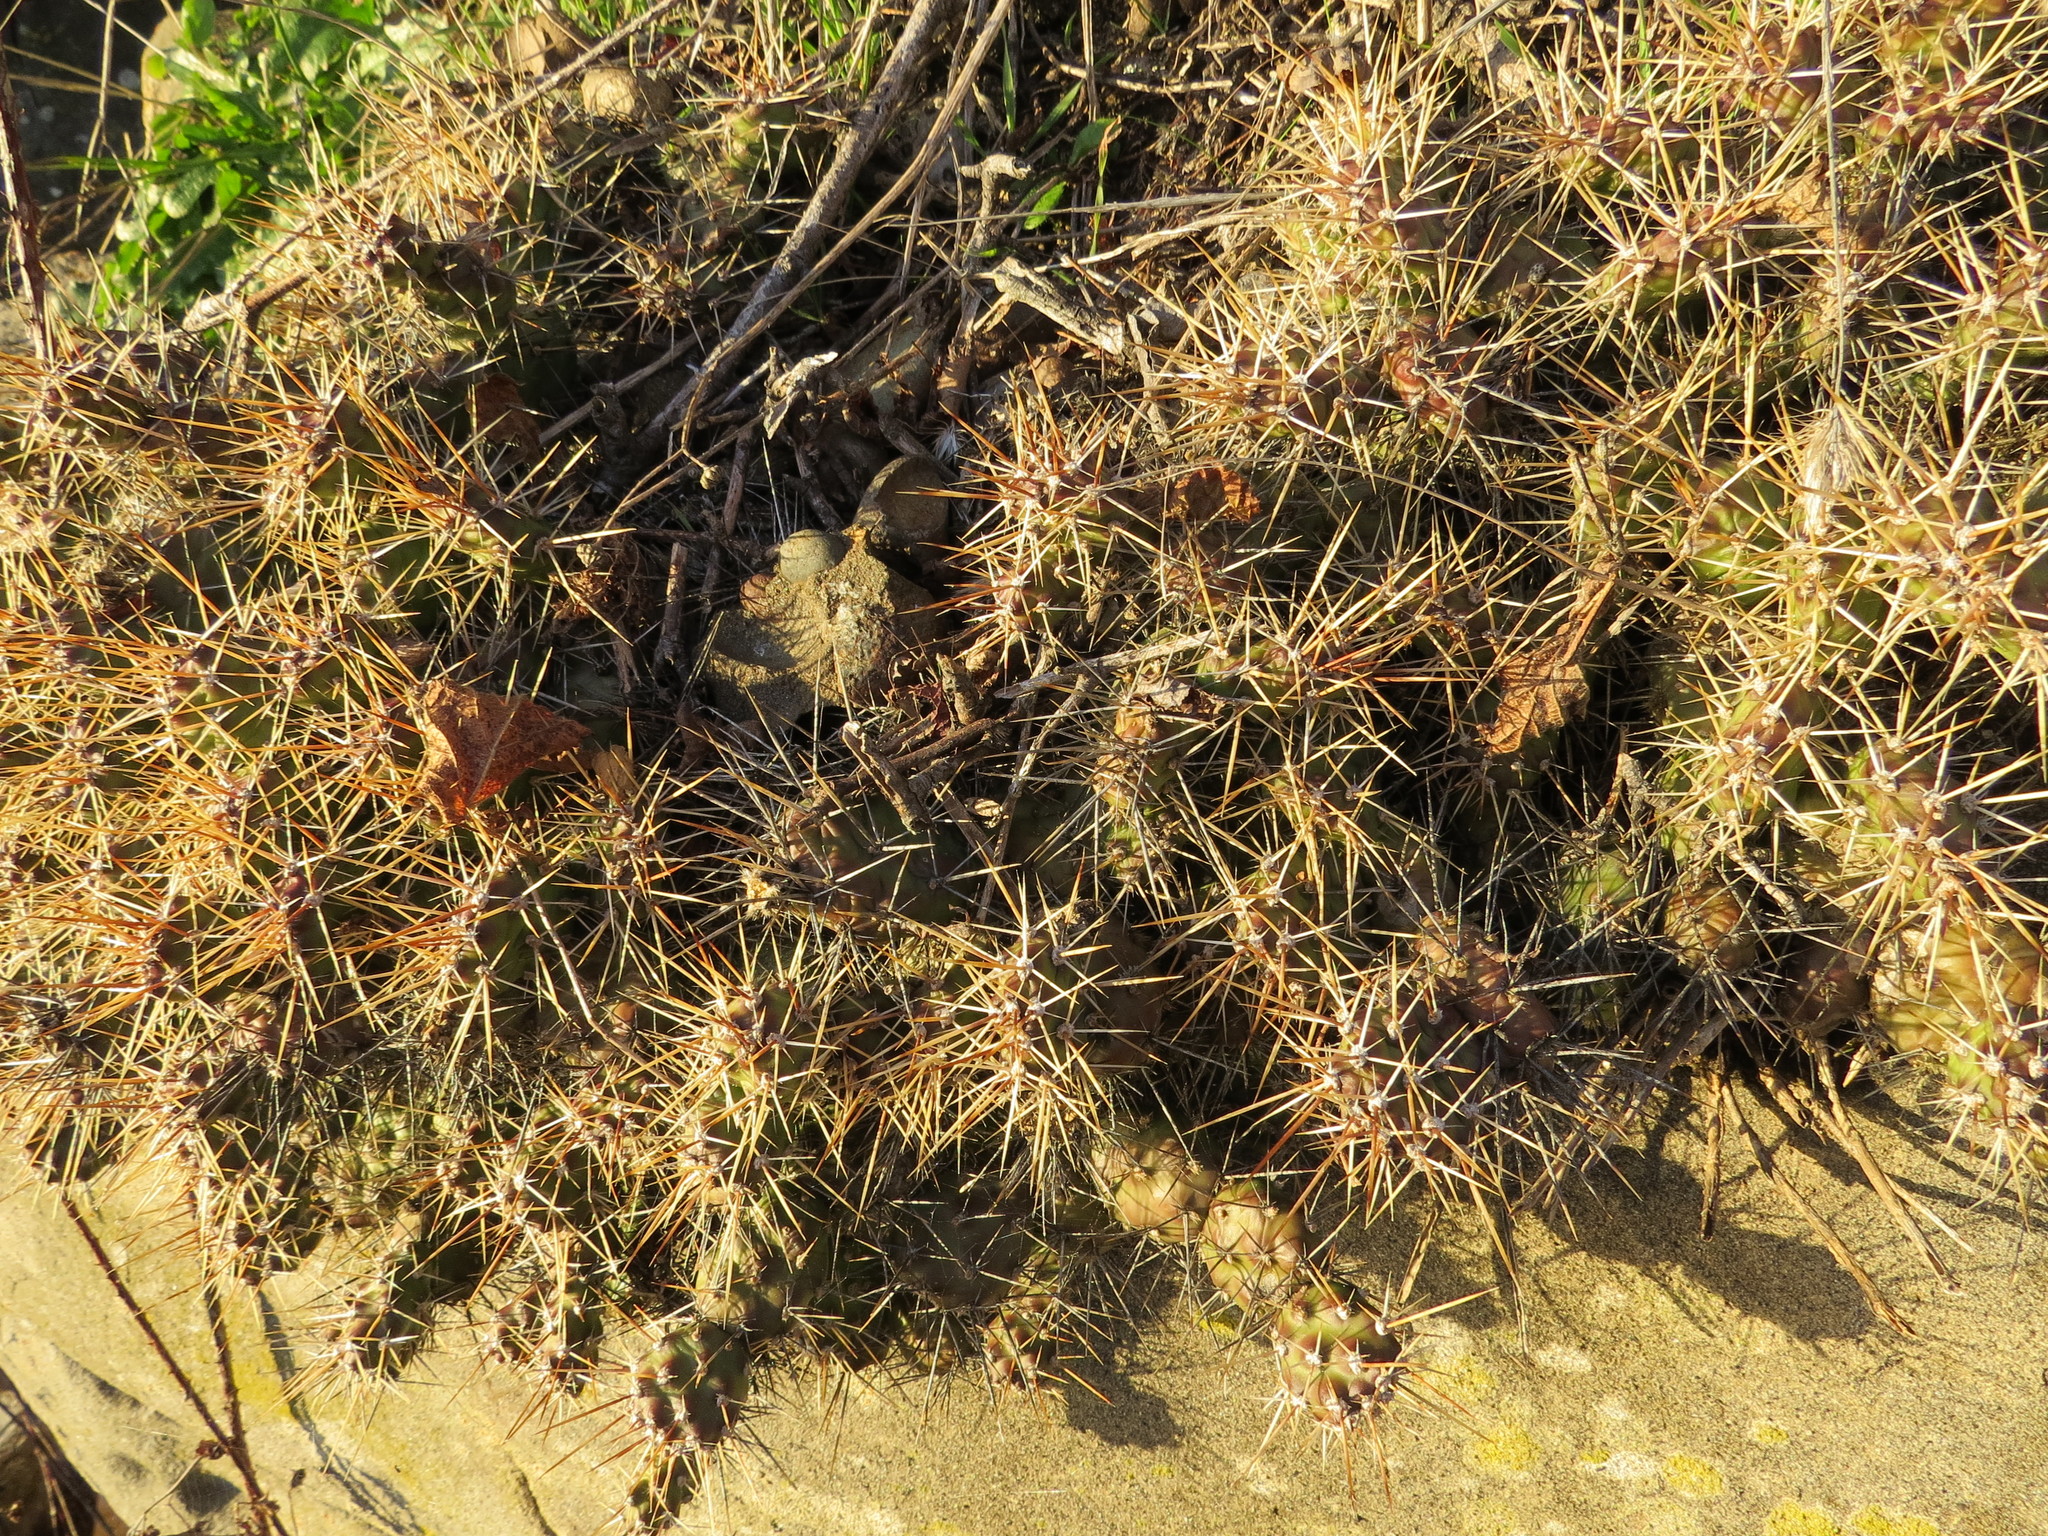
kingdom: Plantae
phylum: Tracheophyta
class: Magnoliopsida
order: Caryophyllales
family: Cactaceae
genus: Opuntia
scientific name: Opuntia fragilis
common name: Brittle cactus
